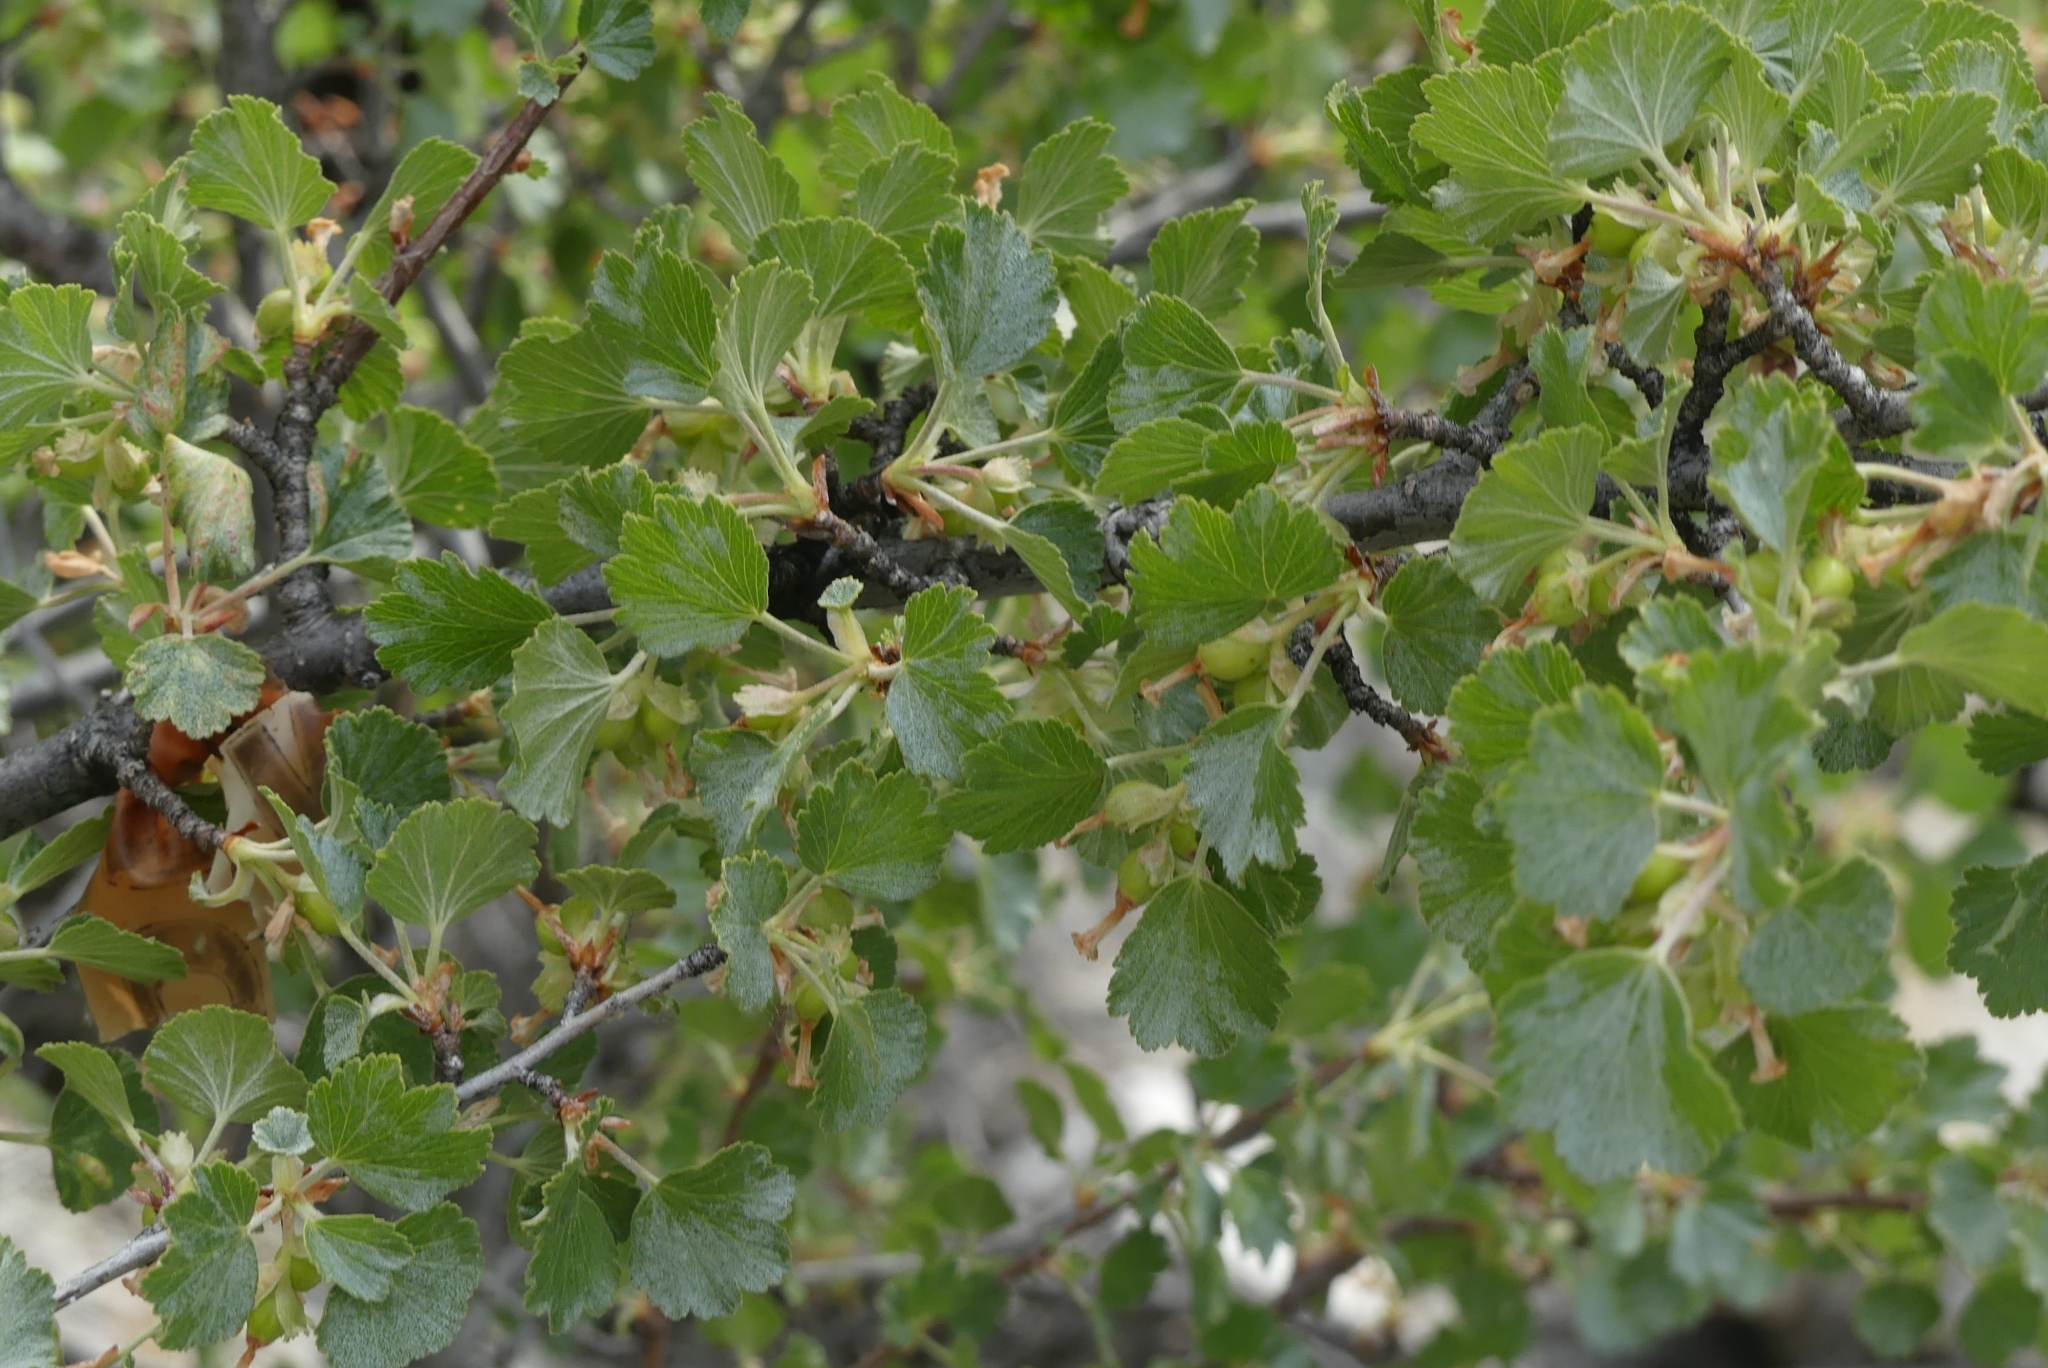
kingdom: Plantae
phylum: Tracheophyta
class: Magnoliopsida
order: Saxifragales
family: Grossulariaceae
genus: Ribes
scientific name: Ribes cereum
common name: Wax currant
